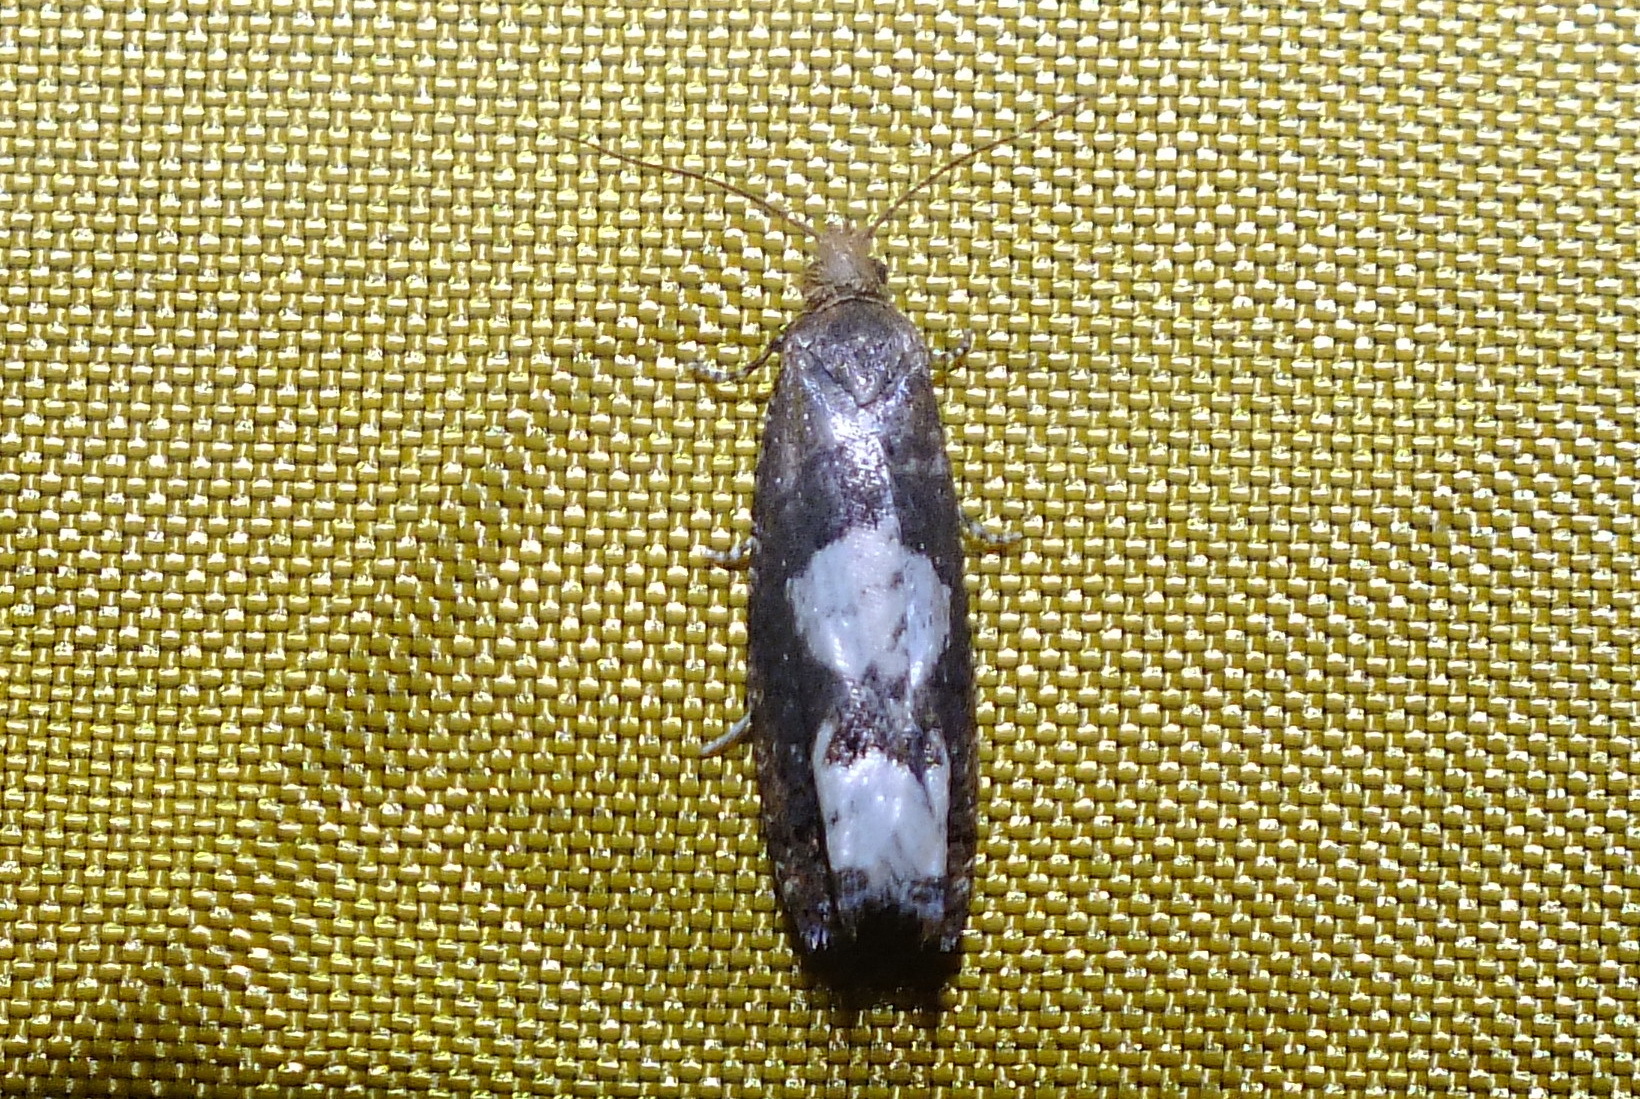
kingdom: Animalia
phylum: Arthropoda
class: Insecta
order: Lepidoptera
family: Tortricidae
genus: Epinotia
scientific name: Epinotia trigonella
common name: White-blotch bell
